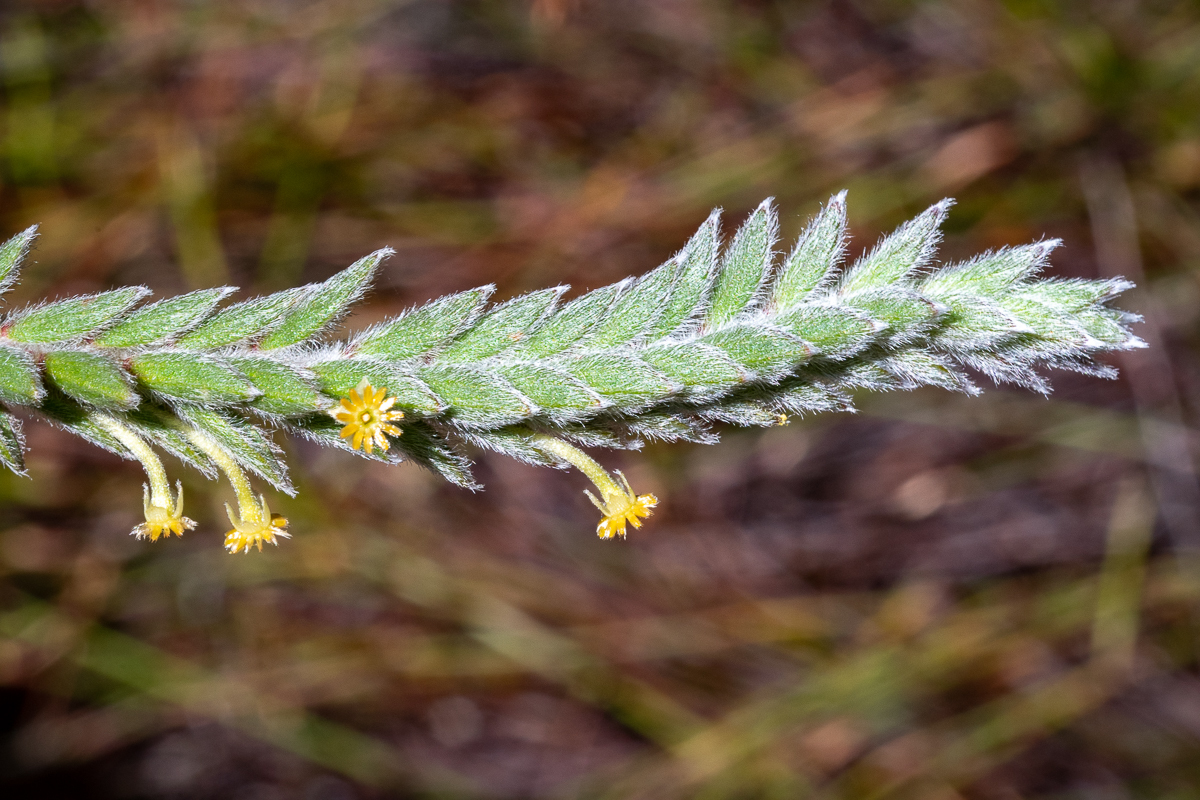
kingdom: Plantae
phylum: Tracheophyta
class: Magnoliopsida
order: Malvales
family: Thymelaeaceae
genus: Struthiola
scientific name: Struthiola tomentosa
